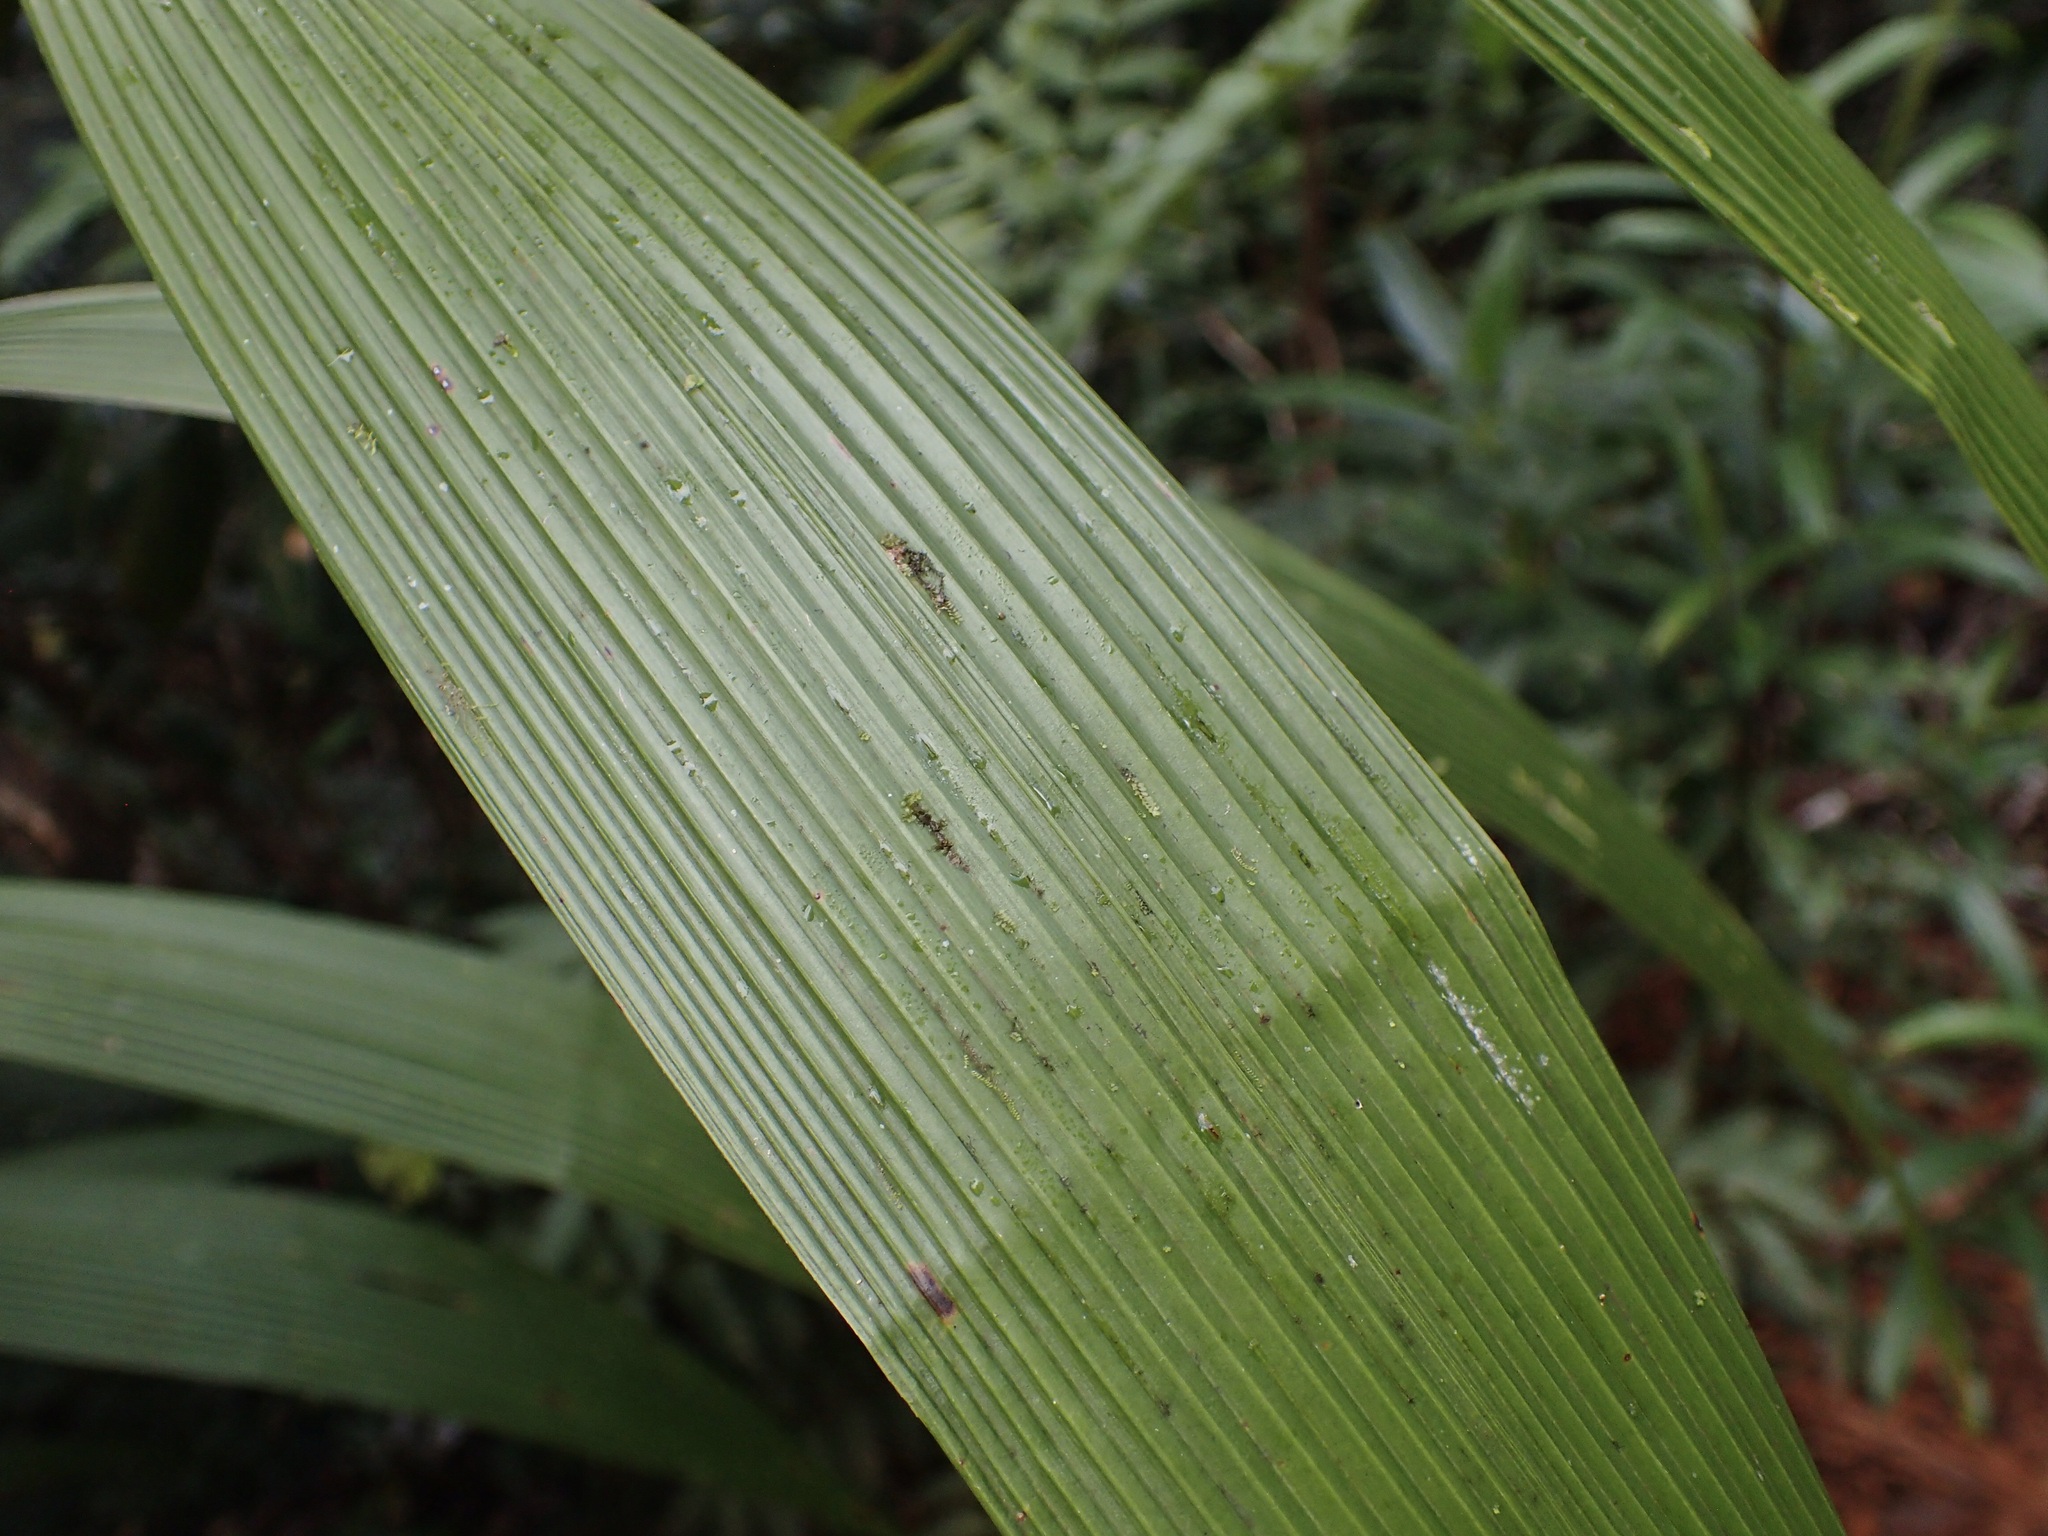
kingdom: Plantae
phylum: Tracheophyta
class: Liliopsida
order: Poales
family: Joinvilleaceae
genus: Joinvillea
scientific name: Joinvillea plicata
